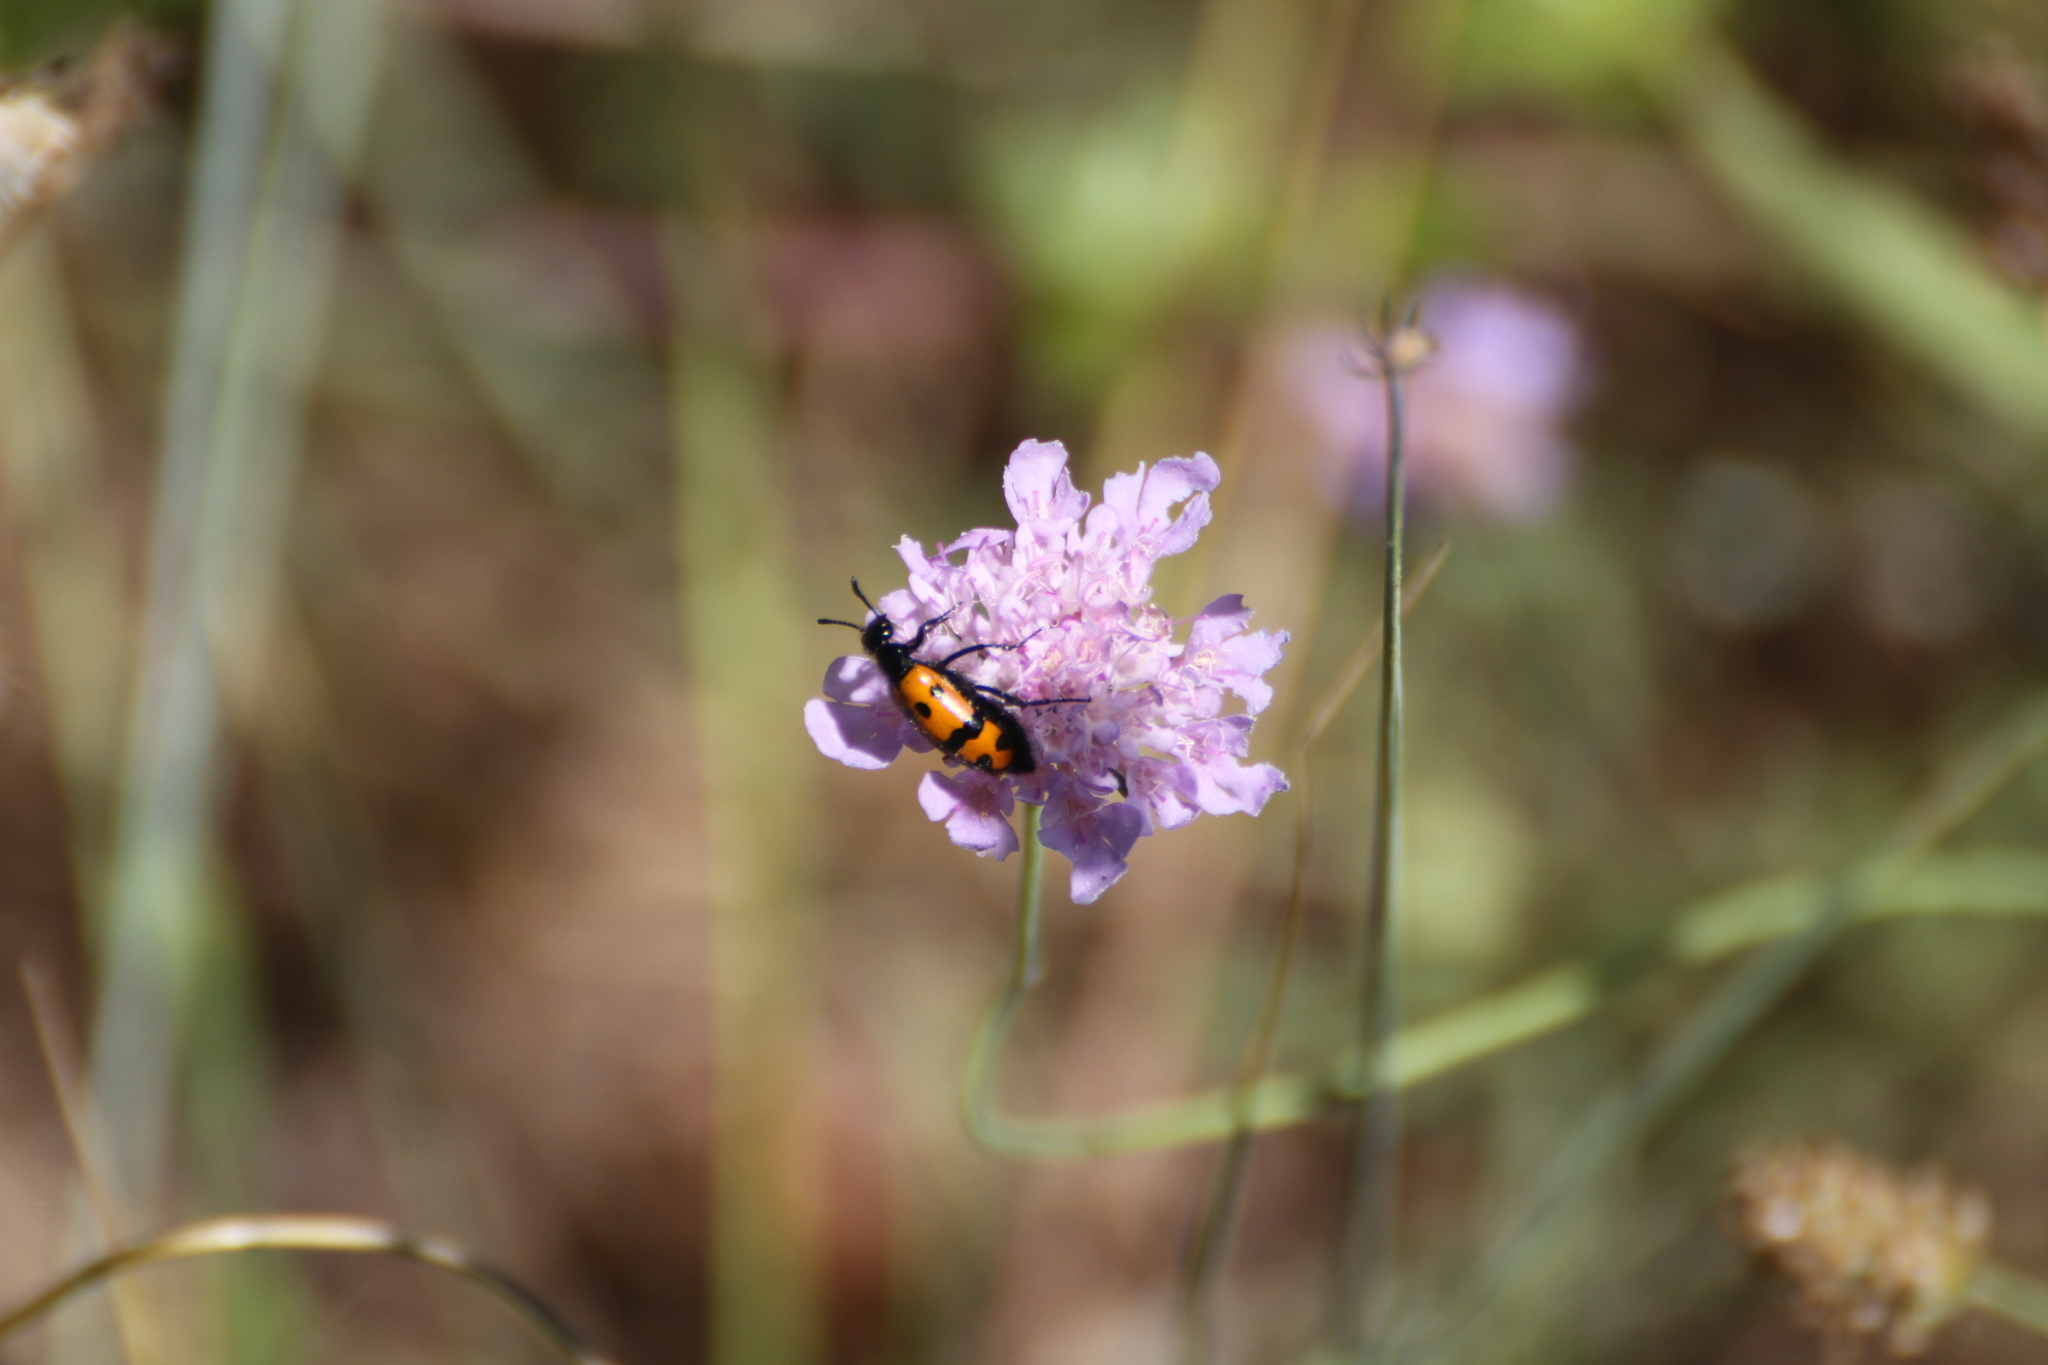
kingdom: Animalia
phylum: Arthropoda
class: Insecta
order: Coleoptera
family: Meloidae
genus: Mylabris
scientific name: Mylabris connata
